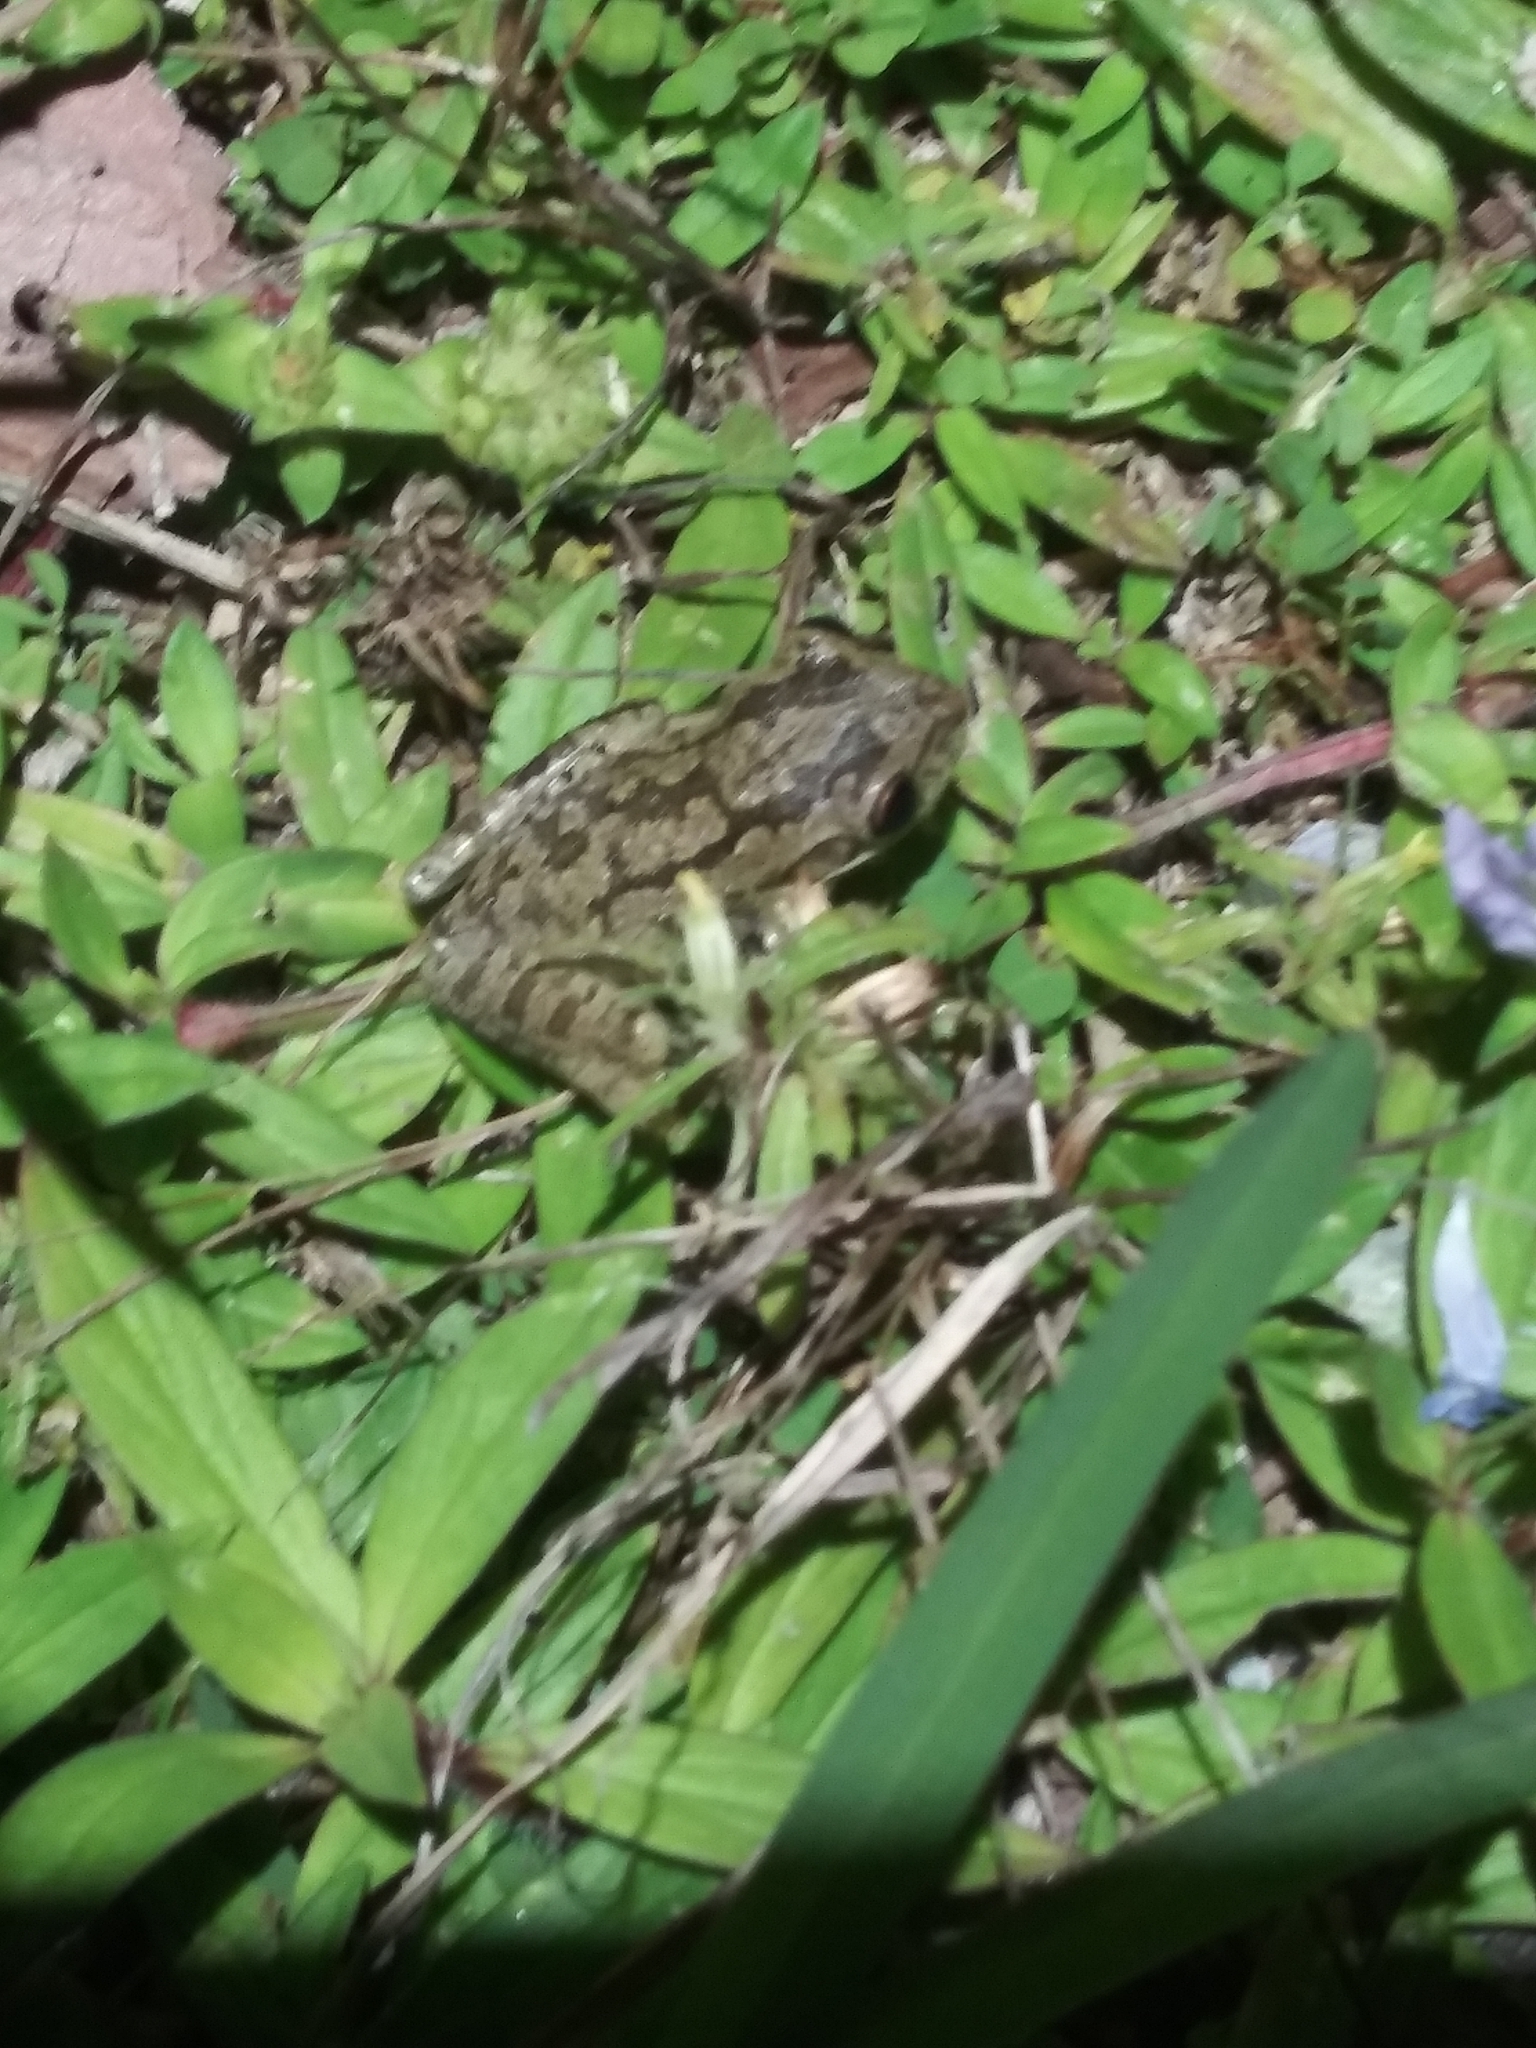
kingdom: Animalia
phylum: Chordata
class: Amphibia
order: Anura
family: Hylidae
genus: Osteopilus
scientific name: Osteopilus septentrionalis
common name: Cuban treefrog
